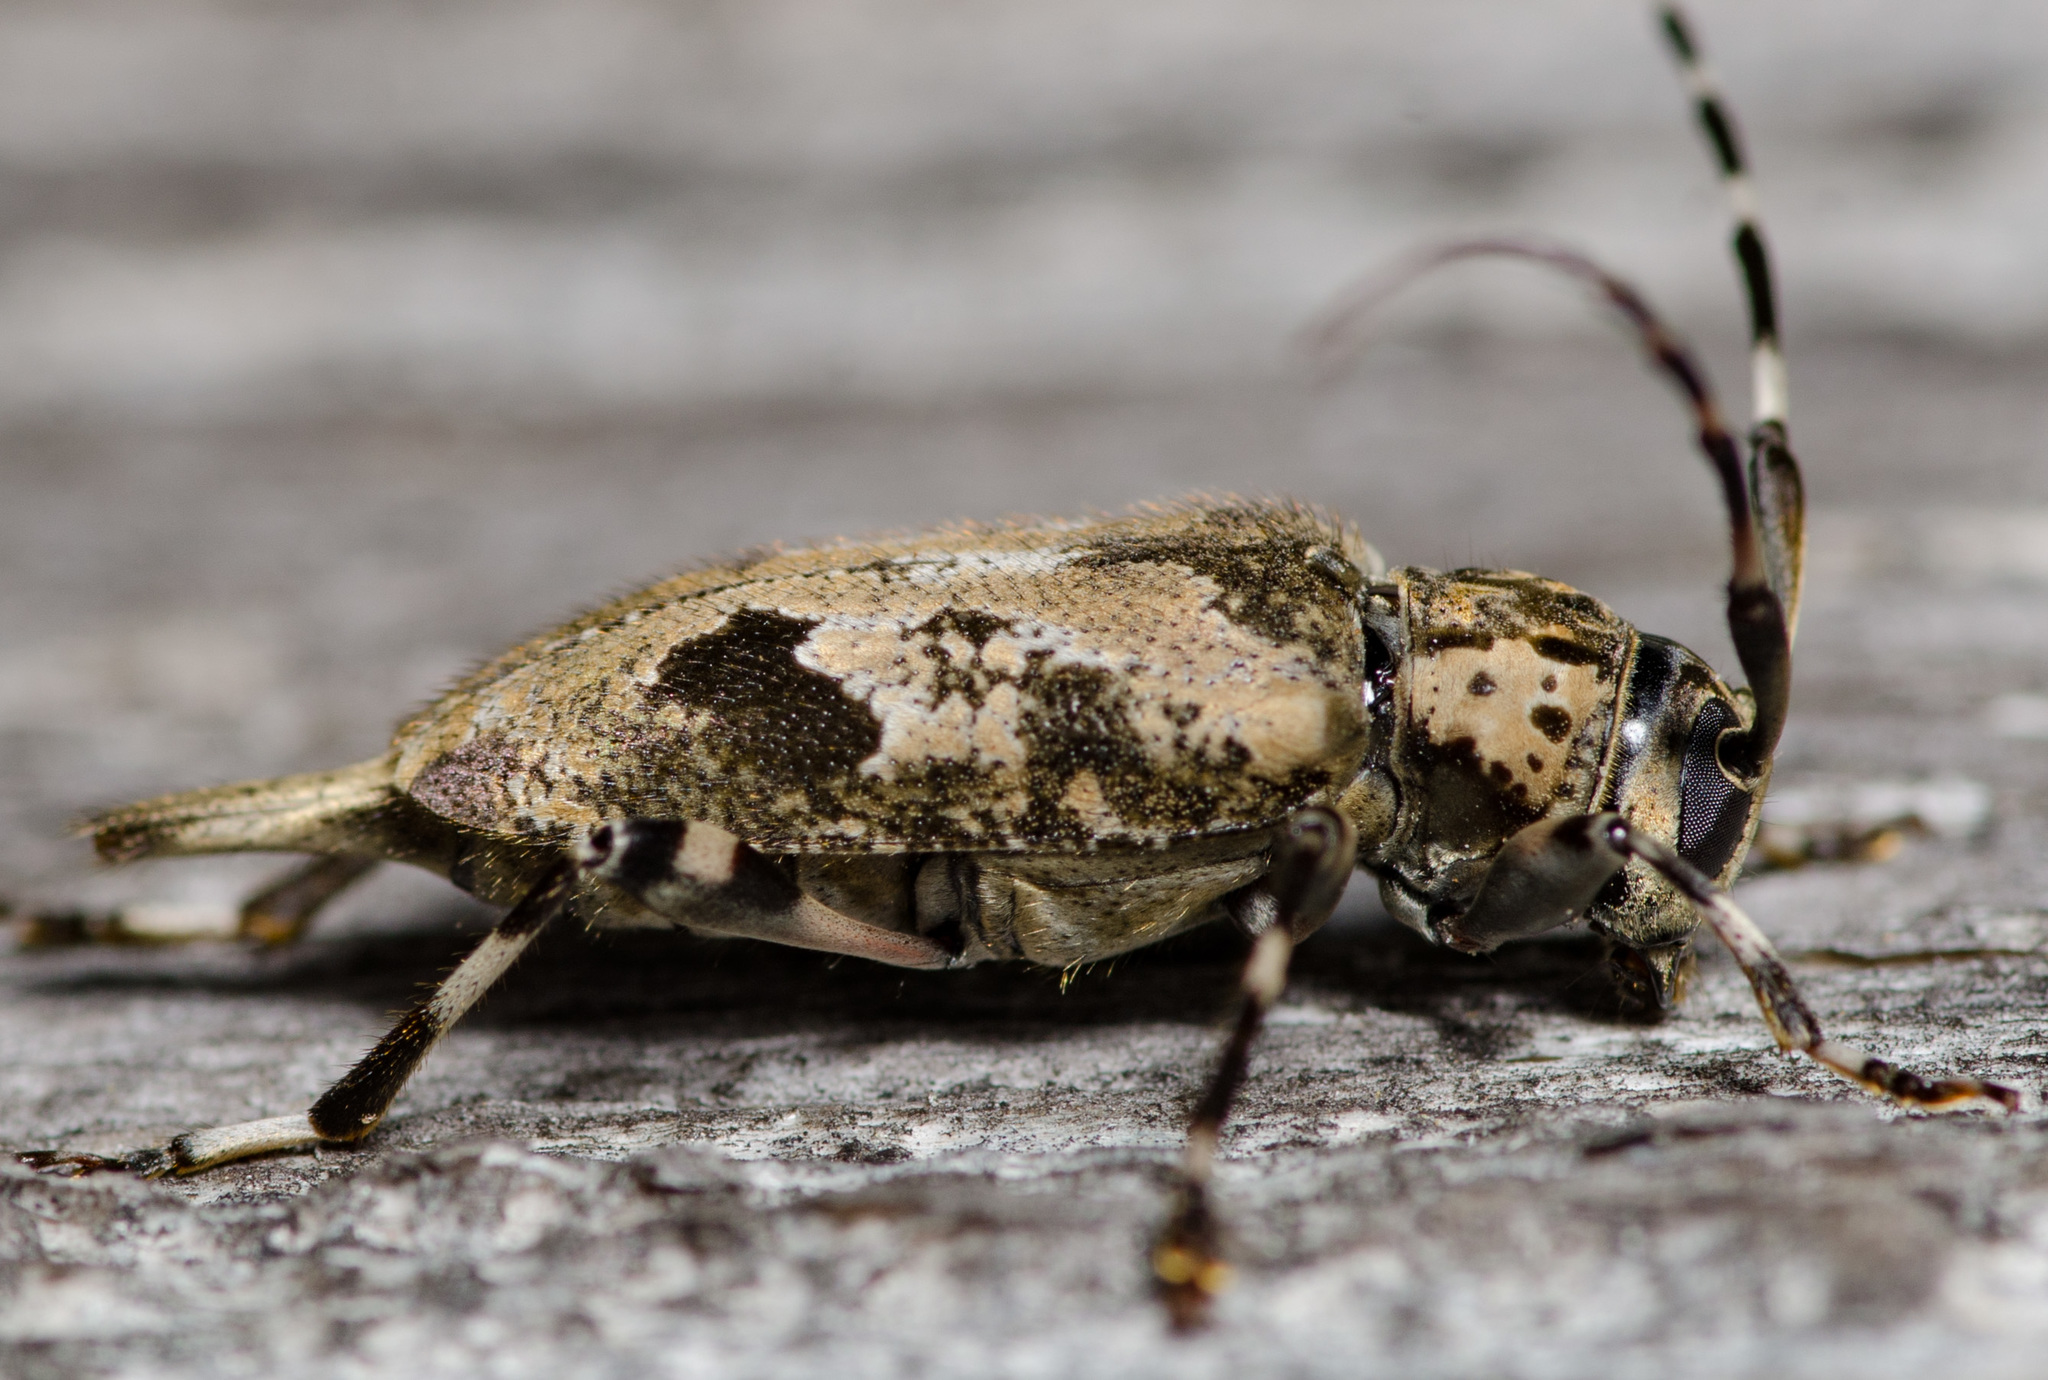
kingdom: Animalia
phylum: Arthropoda
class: Insecta
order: Coleoptera
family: Cerambycidae
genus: Graphisurus
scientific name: Graphisurus triangulifer
